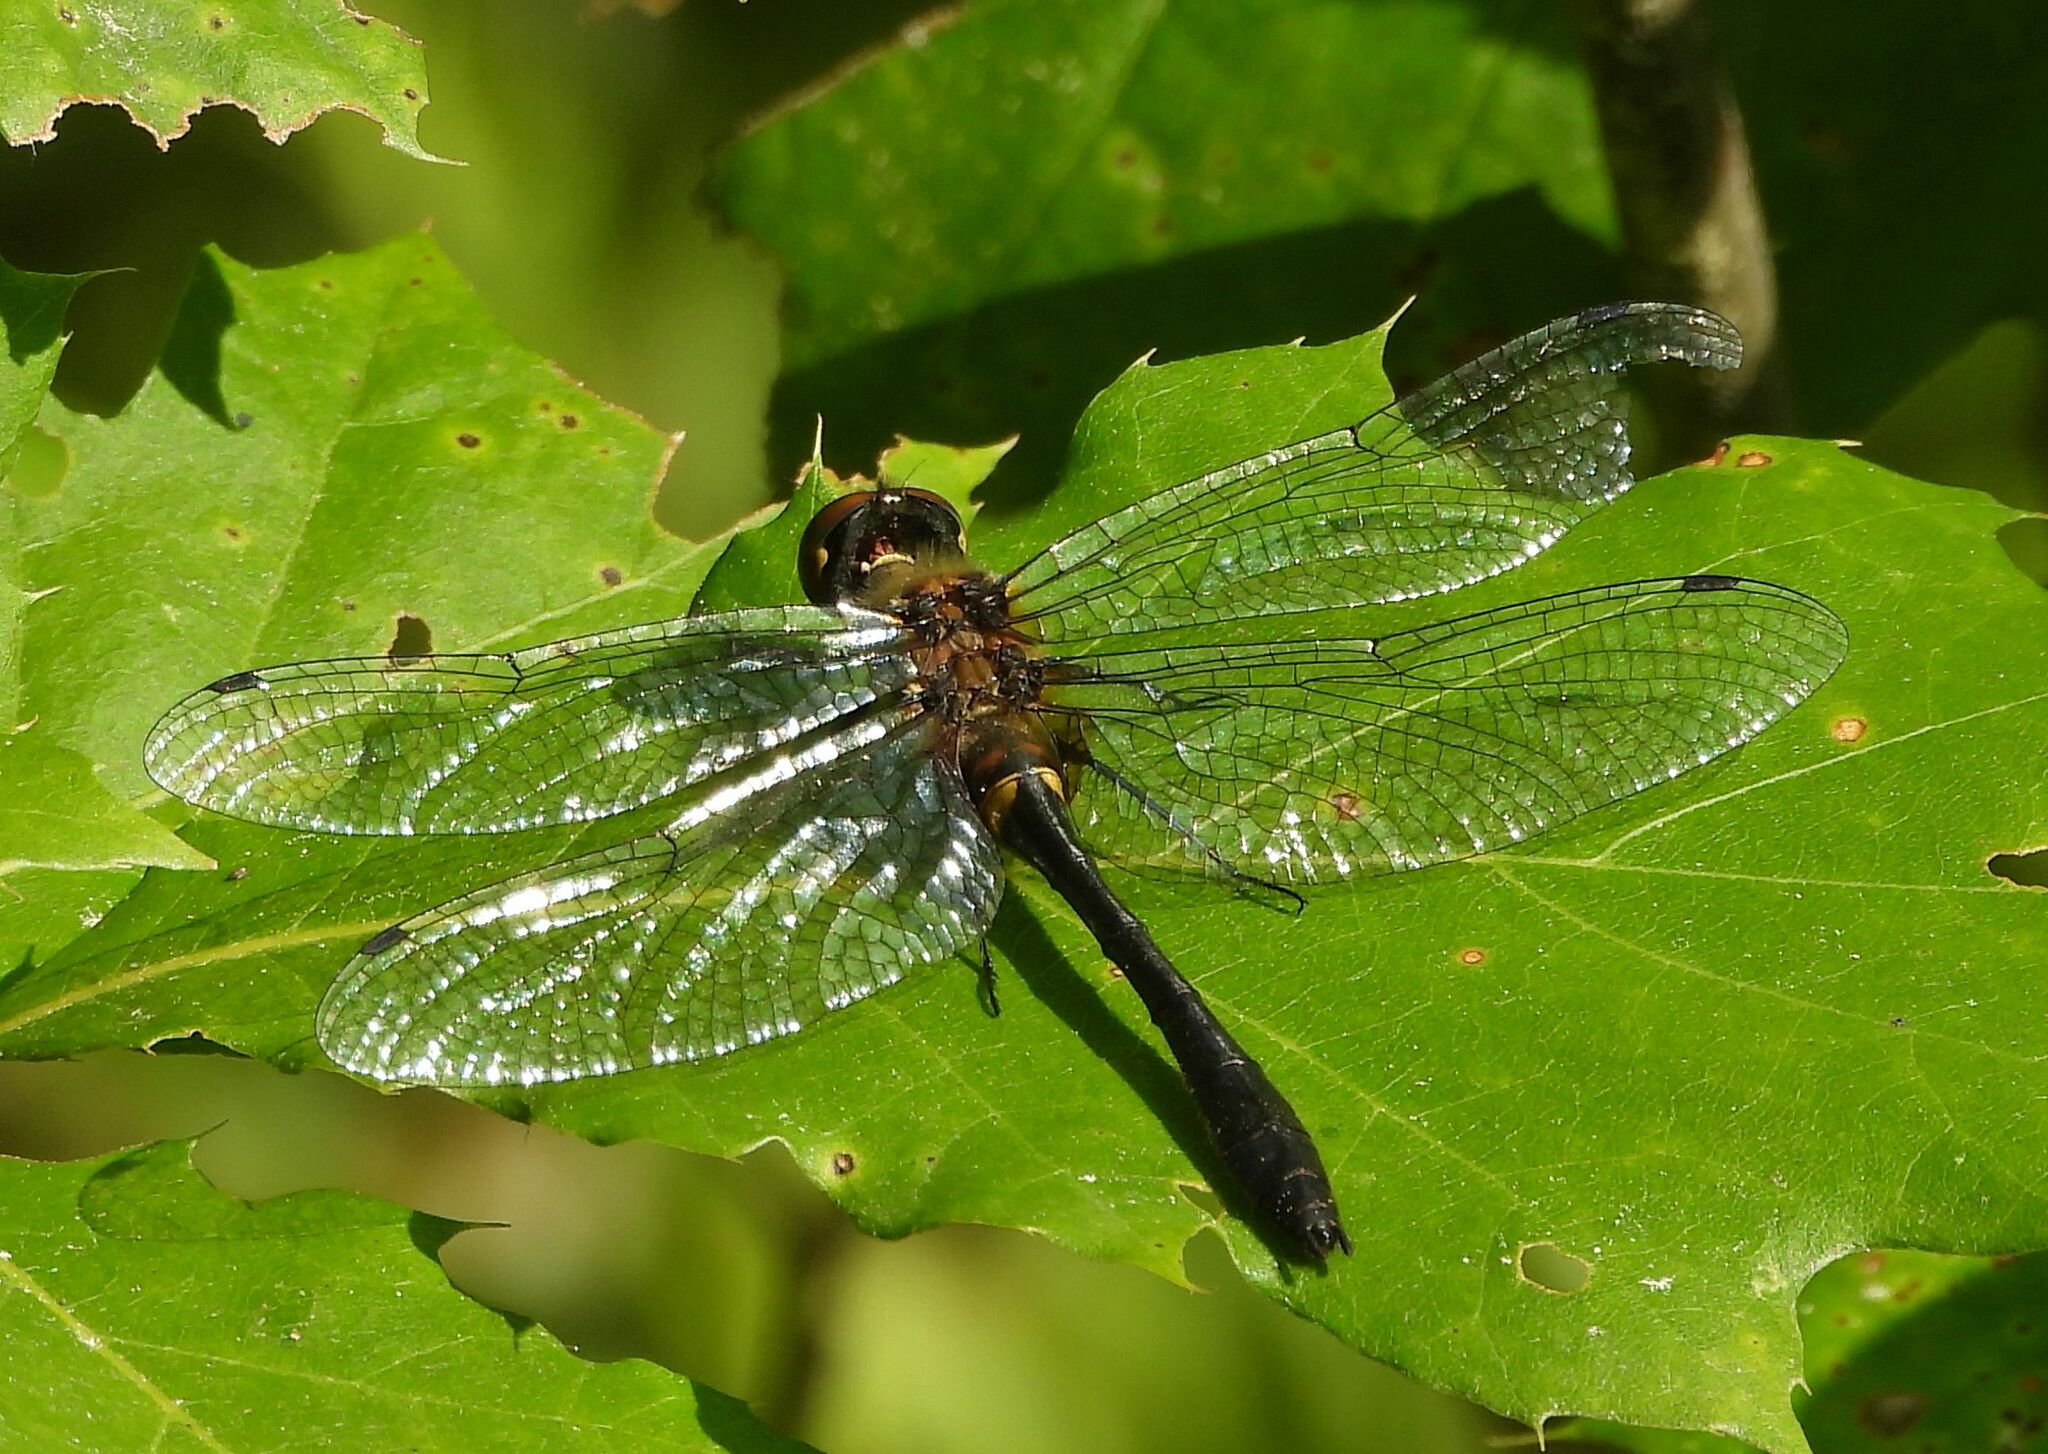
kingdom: Animalia
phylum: Arthropoda
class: Insecta
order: Odonata
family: Corduliidae
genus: Dorocordulia
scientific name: Dorocordulia libera
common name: Racket-tailed emerald
